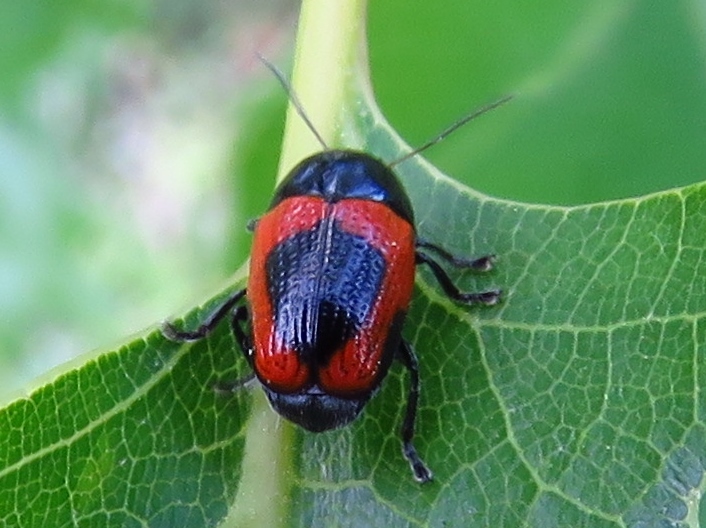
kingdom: Animalia
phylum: Arthropoda
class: Insecta
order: Coleoptera
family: Chrysomelidae
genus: Cryptocephalus
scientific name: Cryptocephalus notatus
